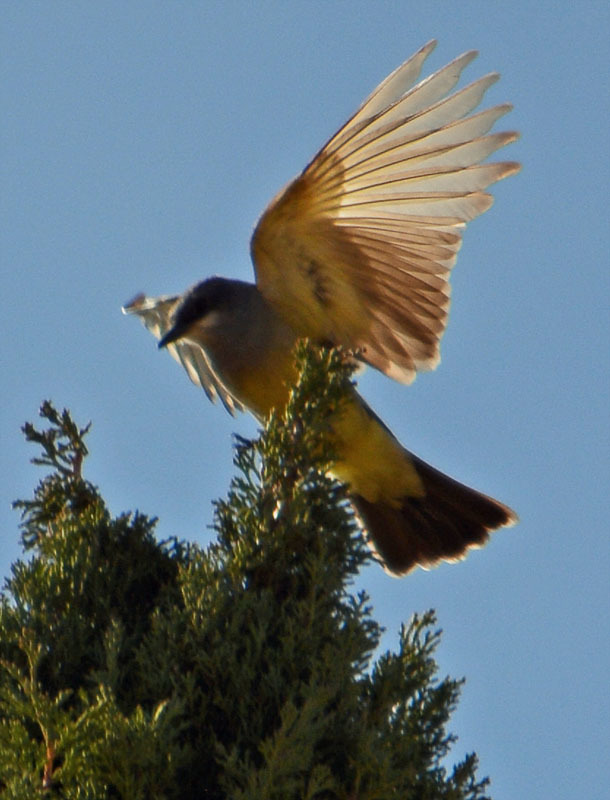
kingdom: Animalia
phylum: Chordata
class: Aves
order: Passeriformes
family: Tyrannidae
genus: Tyrannus
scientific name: Tyrannus vociferans
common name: Cassin's kingbird
